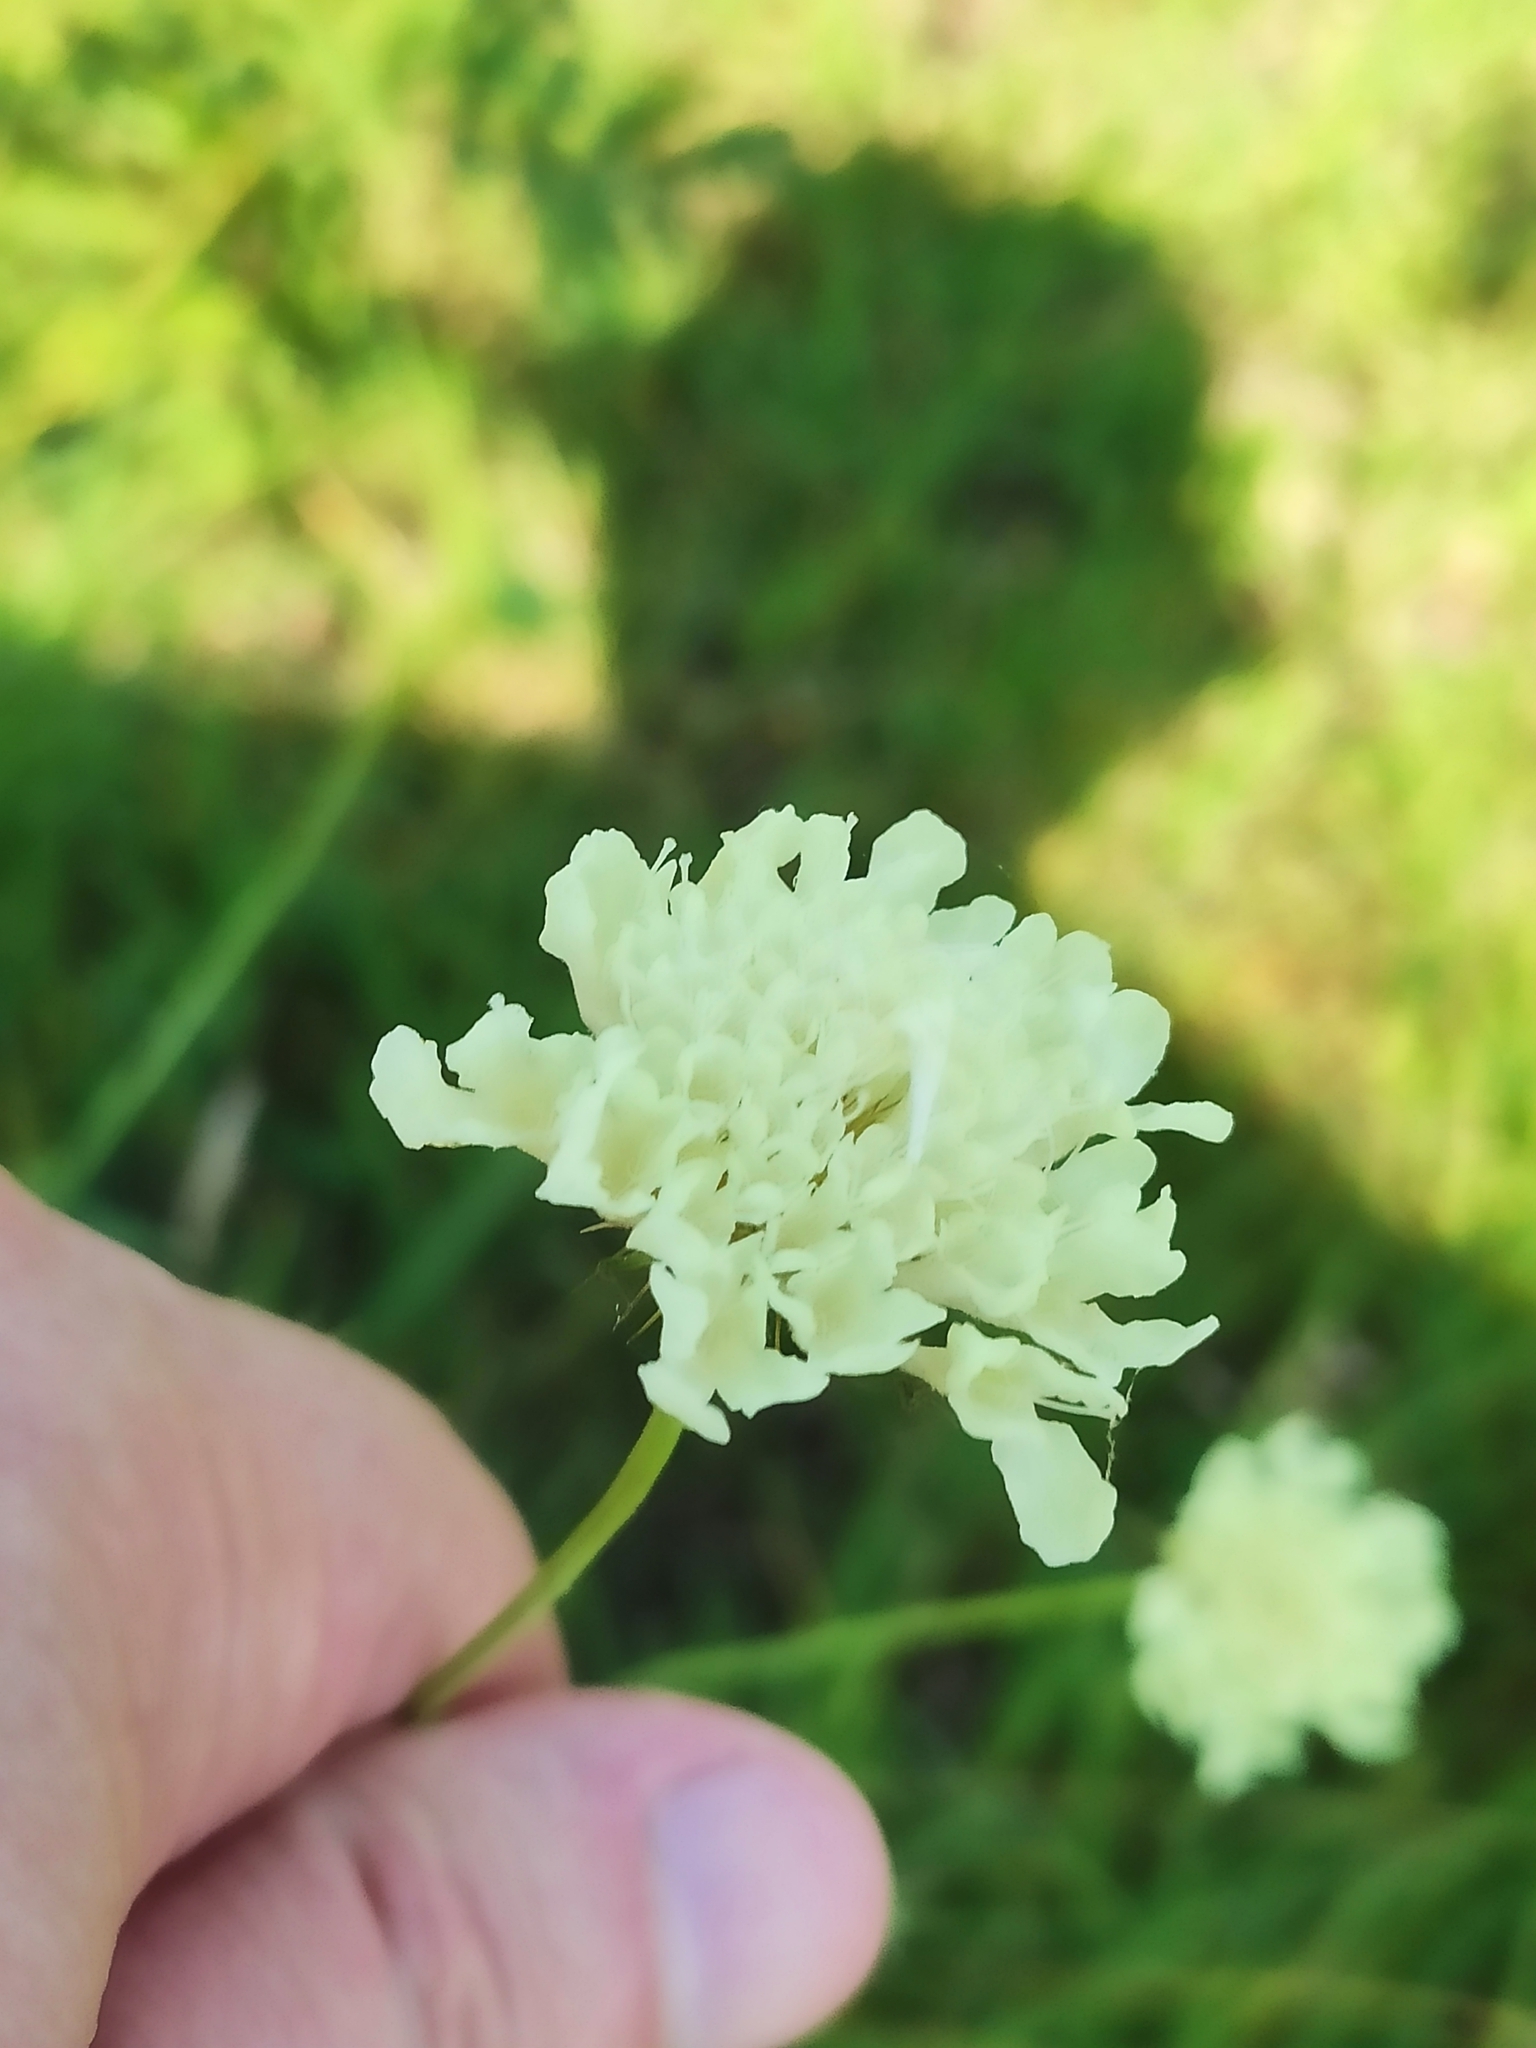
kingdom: Plantae
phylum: Tracheophyta
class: Magnoliopsida
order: Dipsacales
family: Caprifoliaceae
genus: Scabiosa
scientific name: Scabiosa ochroleuca
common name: Cream pincushions
